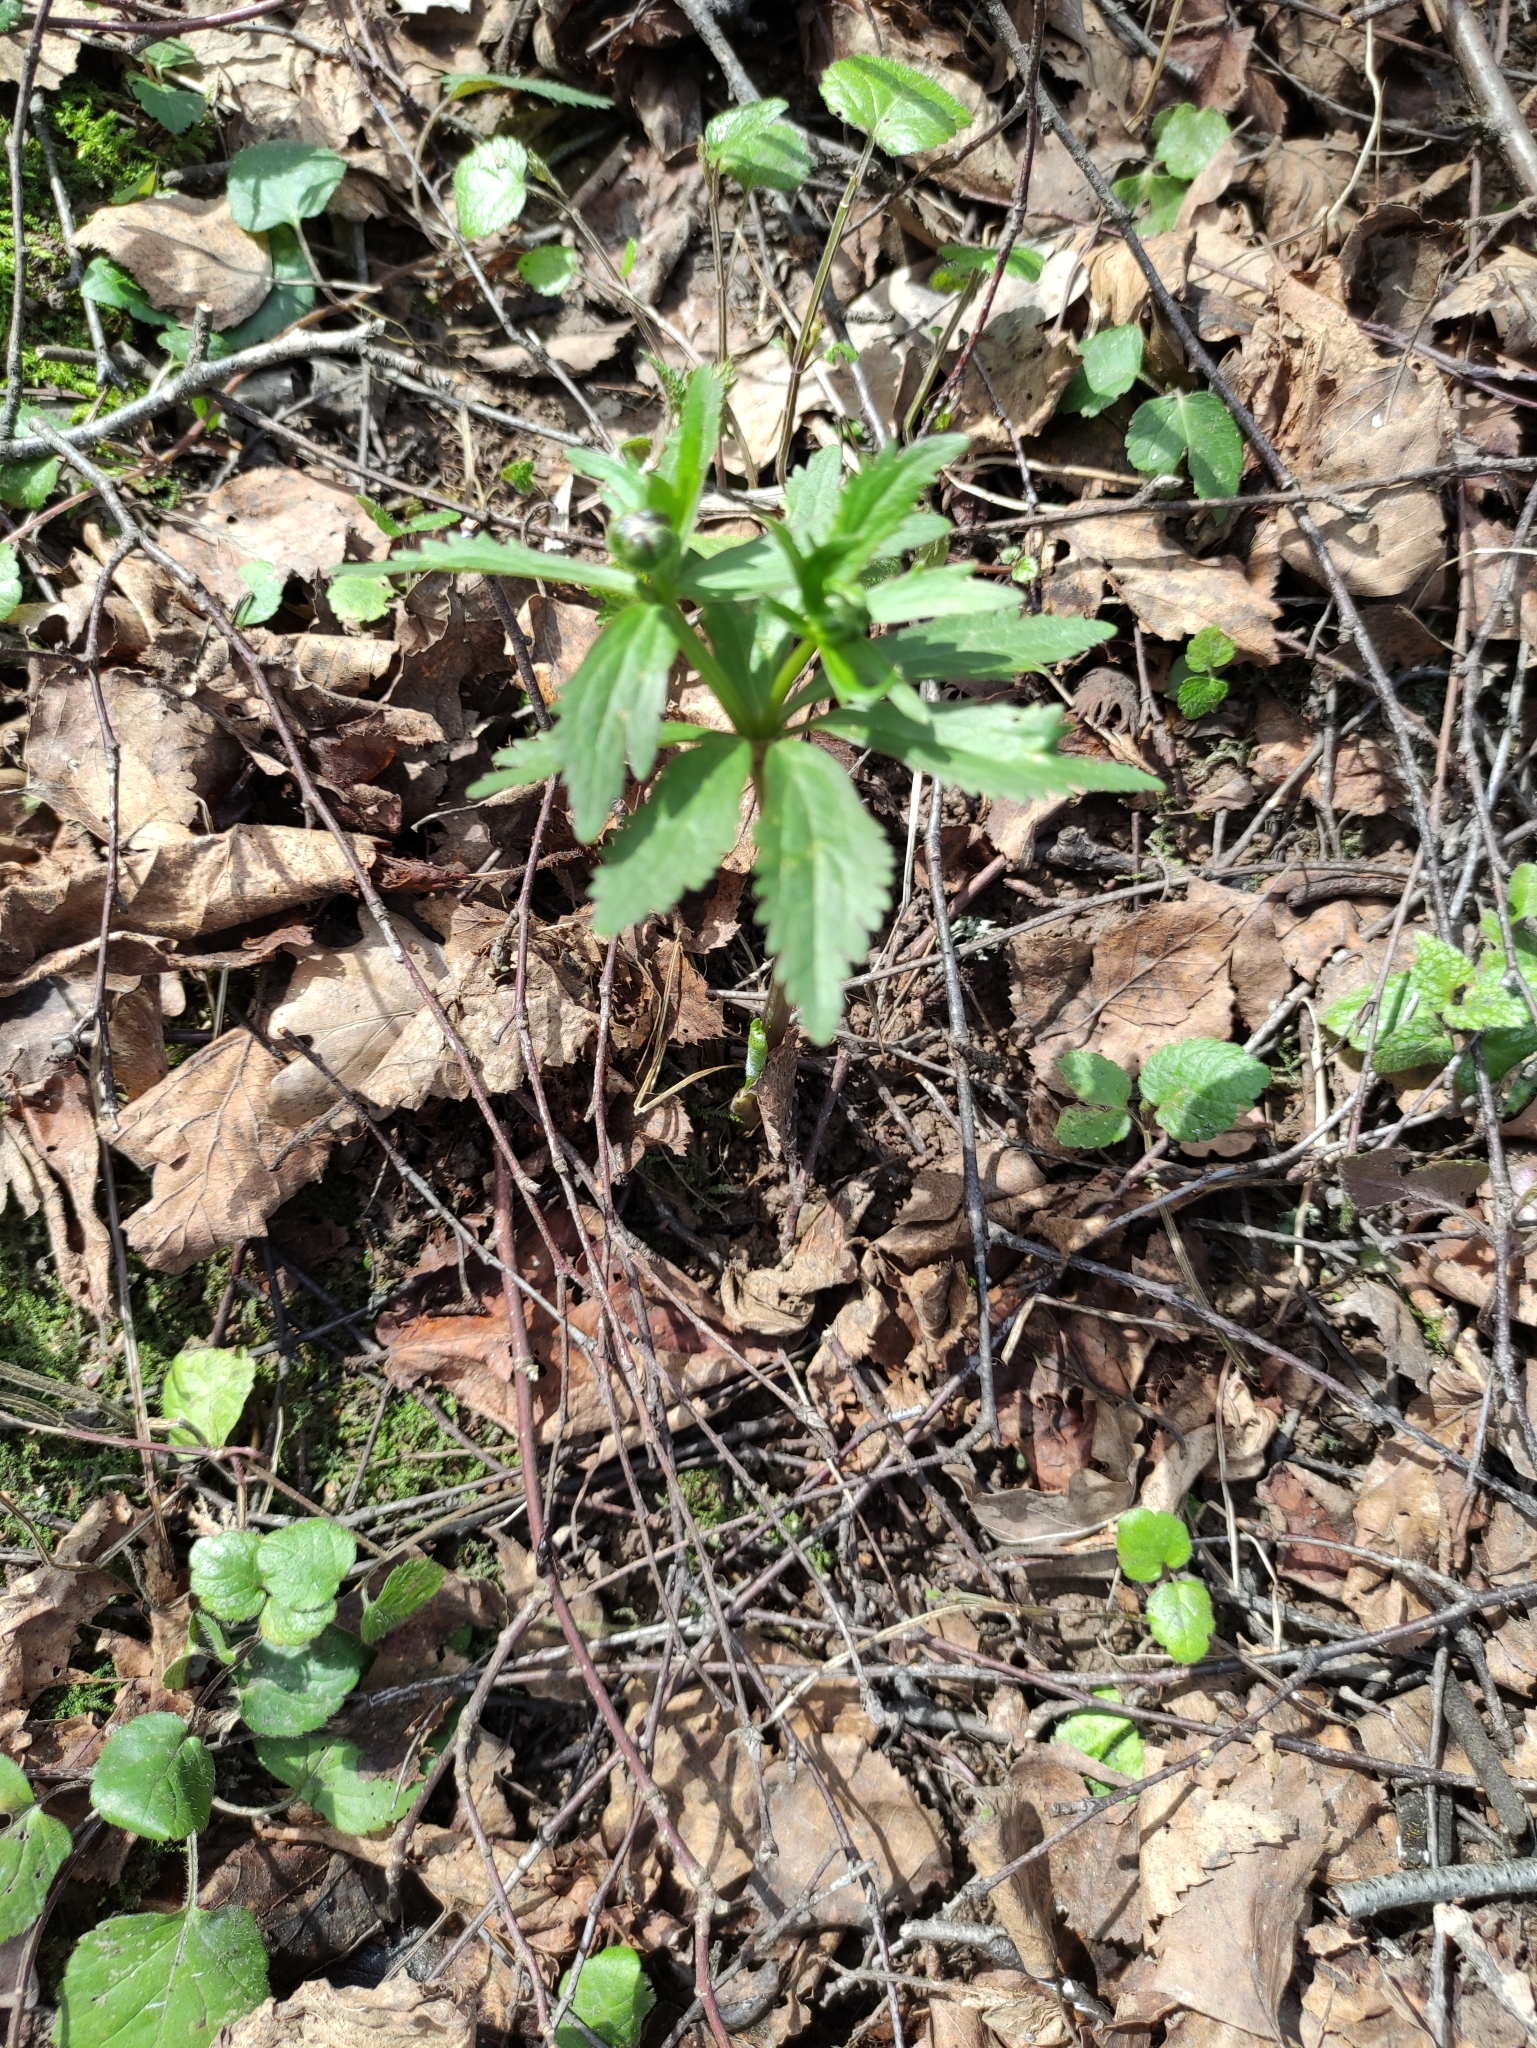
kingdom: Plantae
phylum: Tracheophyta
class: Magnoliopsida
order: Ranunculales
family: Ranunculaceae
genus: Ranunculus
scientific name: Ranunculus cassubicus
